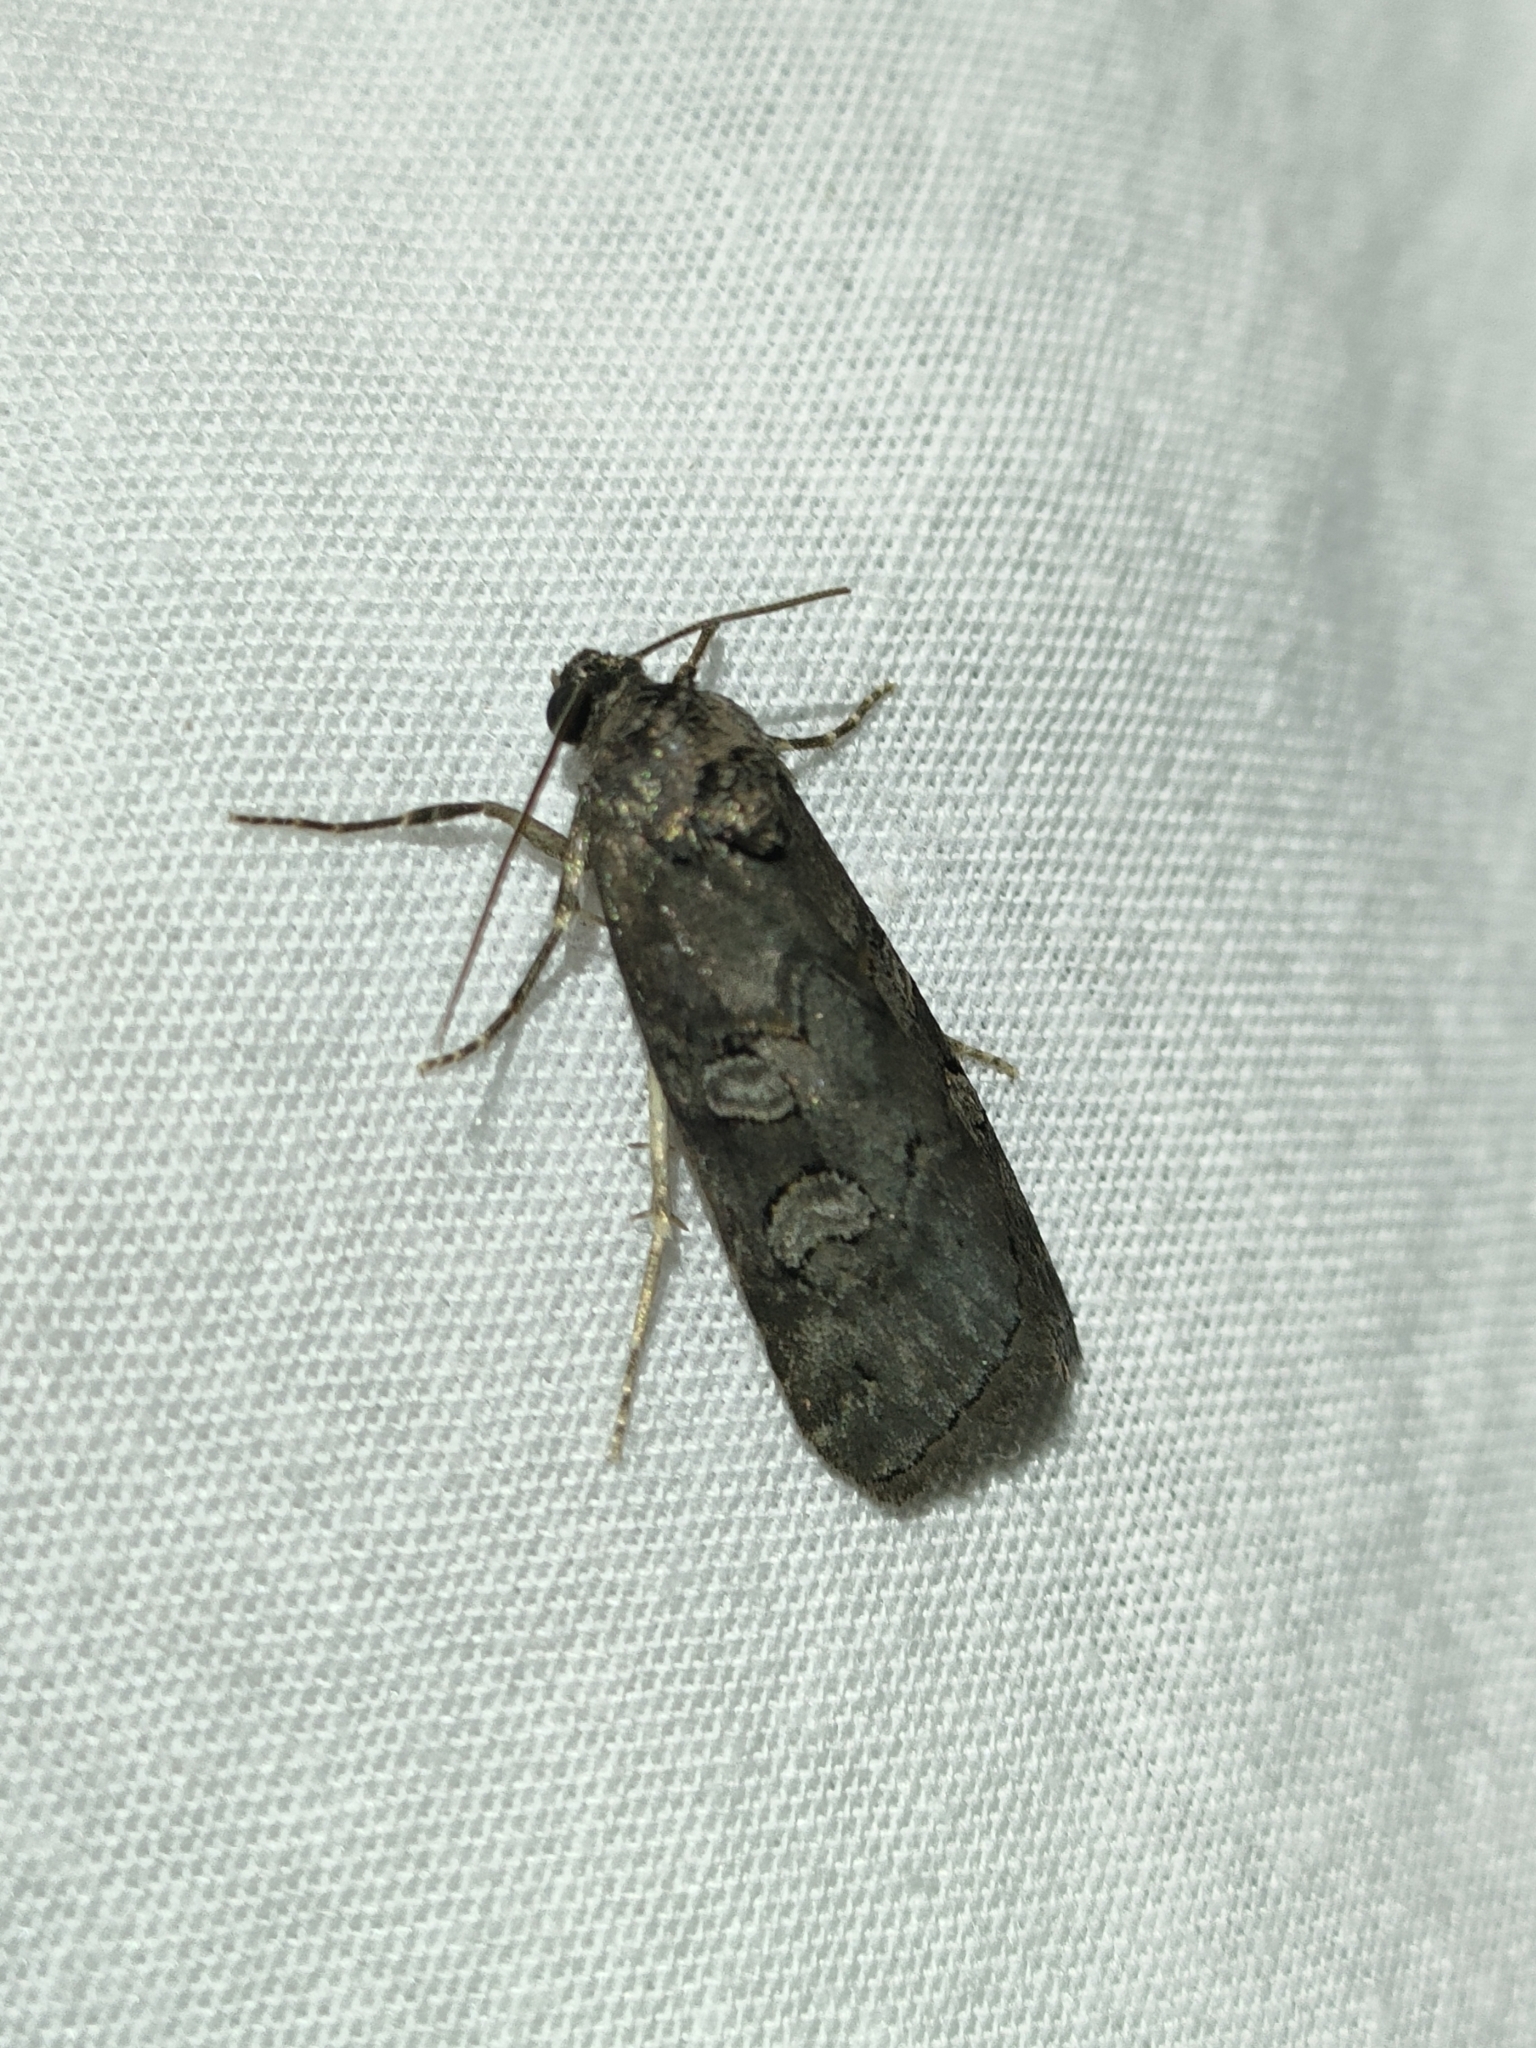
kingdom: Animalia
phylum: Arthropoda
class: Insecta
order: Lepidoptera
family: Noctuidae
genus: Stilbia
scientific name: Stilbia philopalis
